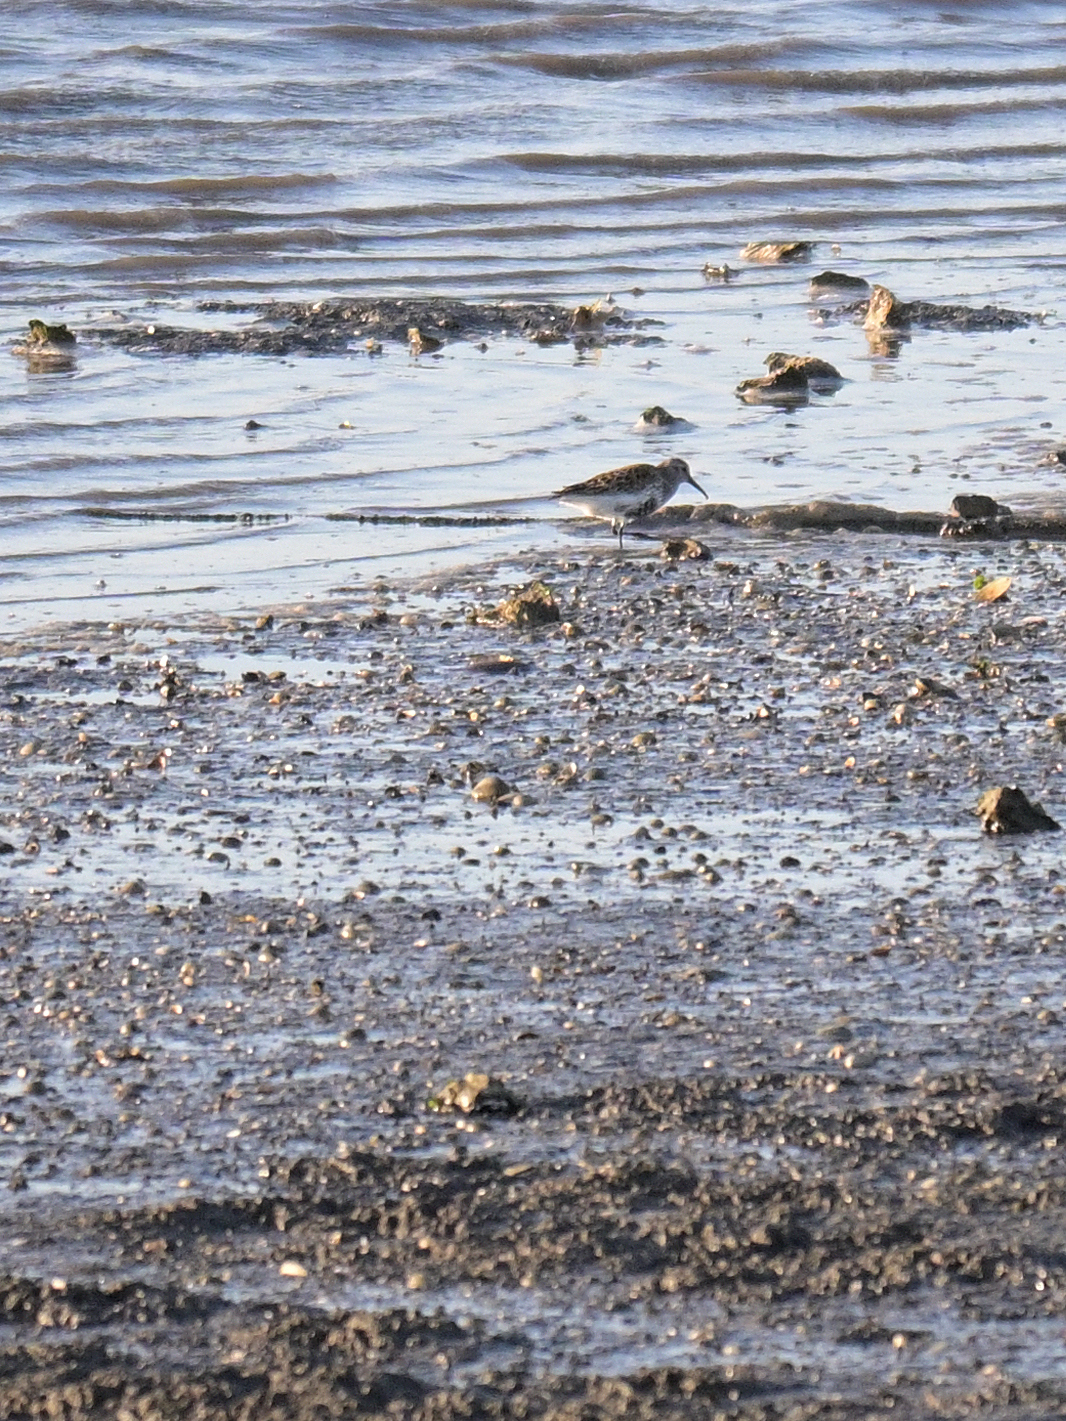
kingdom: Animalia
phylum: Chordata
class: Aves
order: Charadriiformes
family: Scolopacidae
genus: Calidris
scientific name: Calidris alpina
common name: Dunlin
